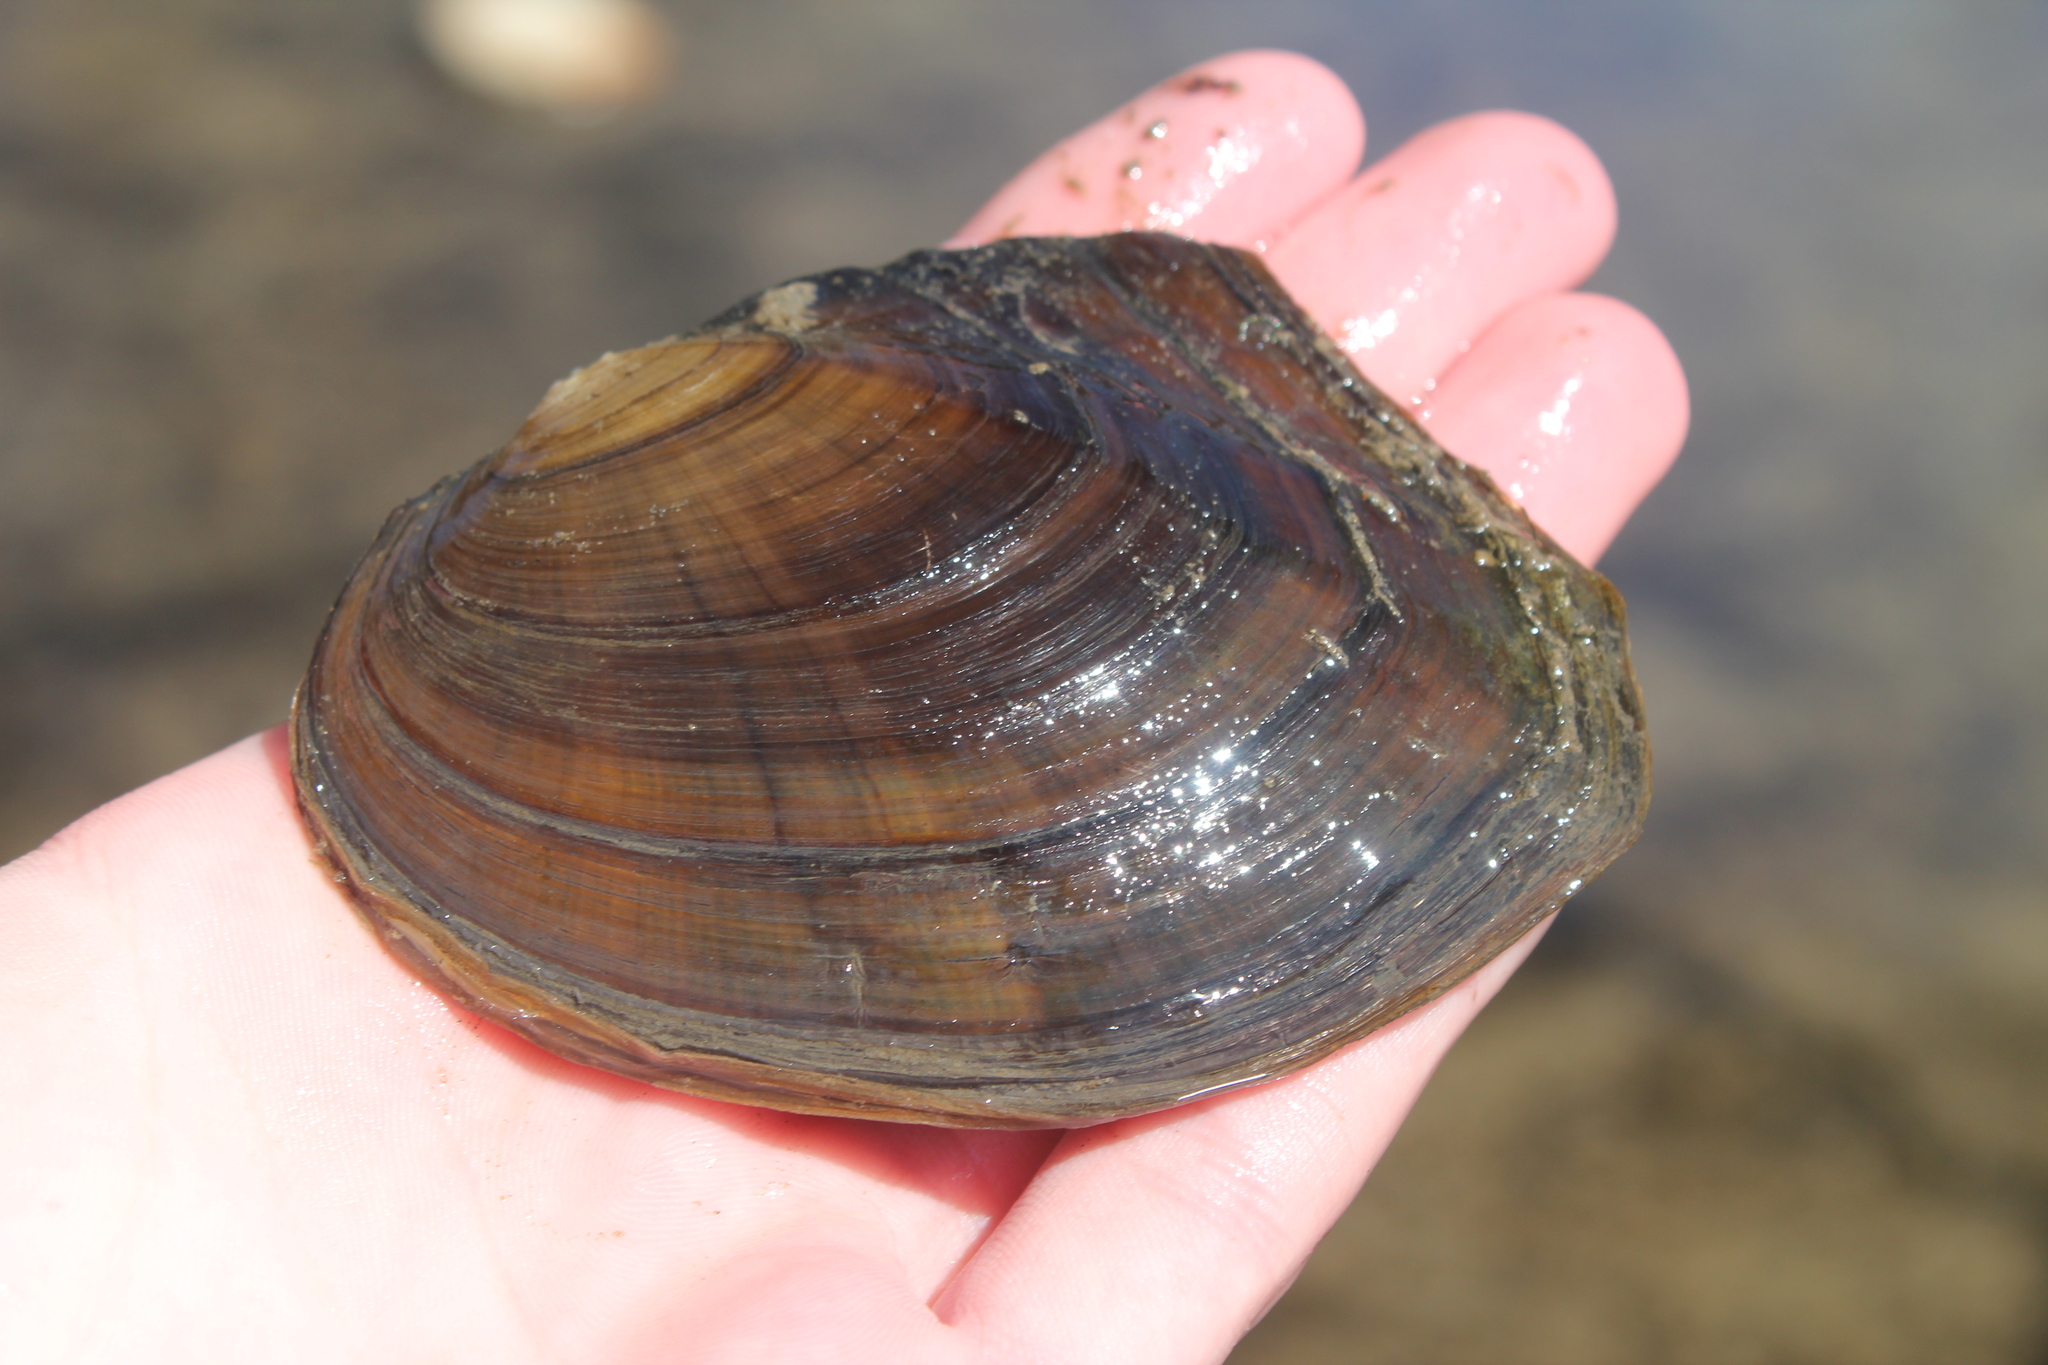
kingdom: Animalia
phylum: Mollusca
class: Bivalvia
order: Unionida
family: Unionidae
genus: Lasmigona
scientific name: Lasmigona complanata
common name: White heelsplitter
